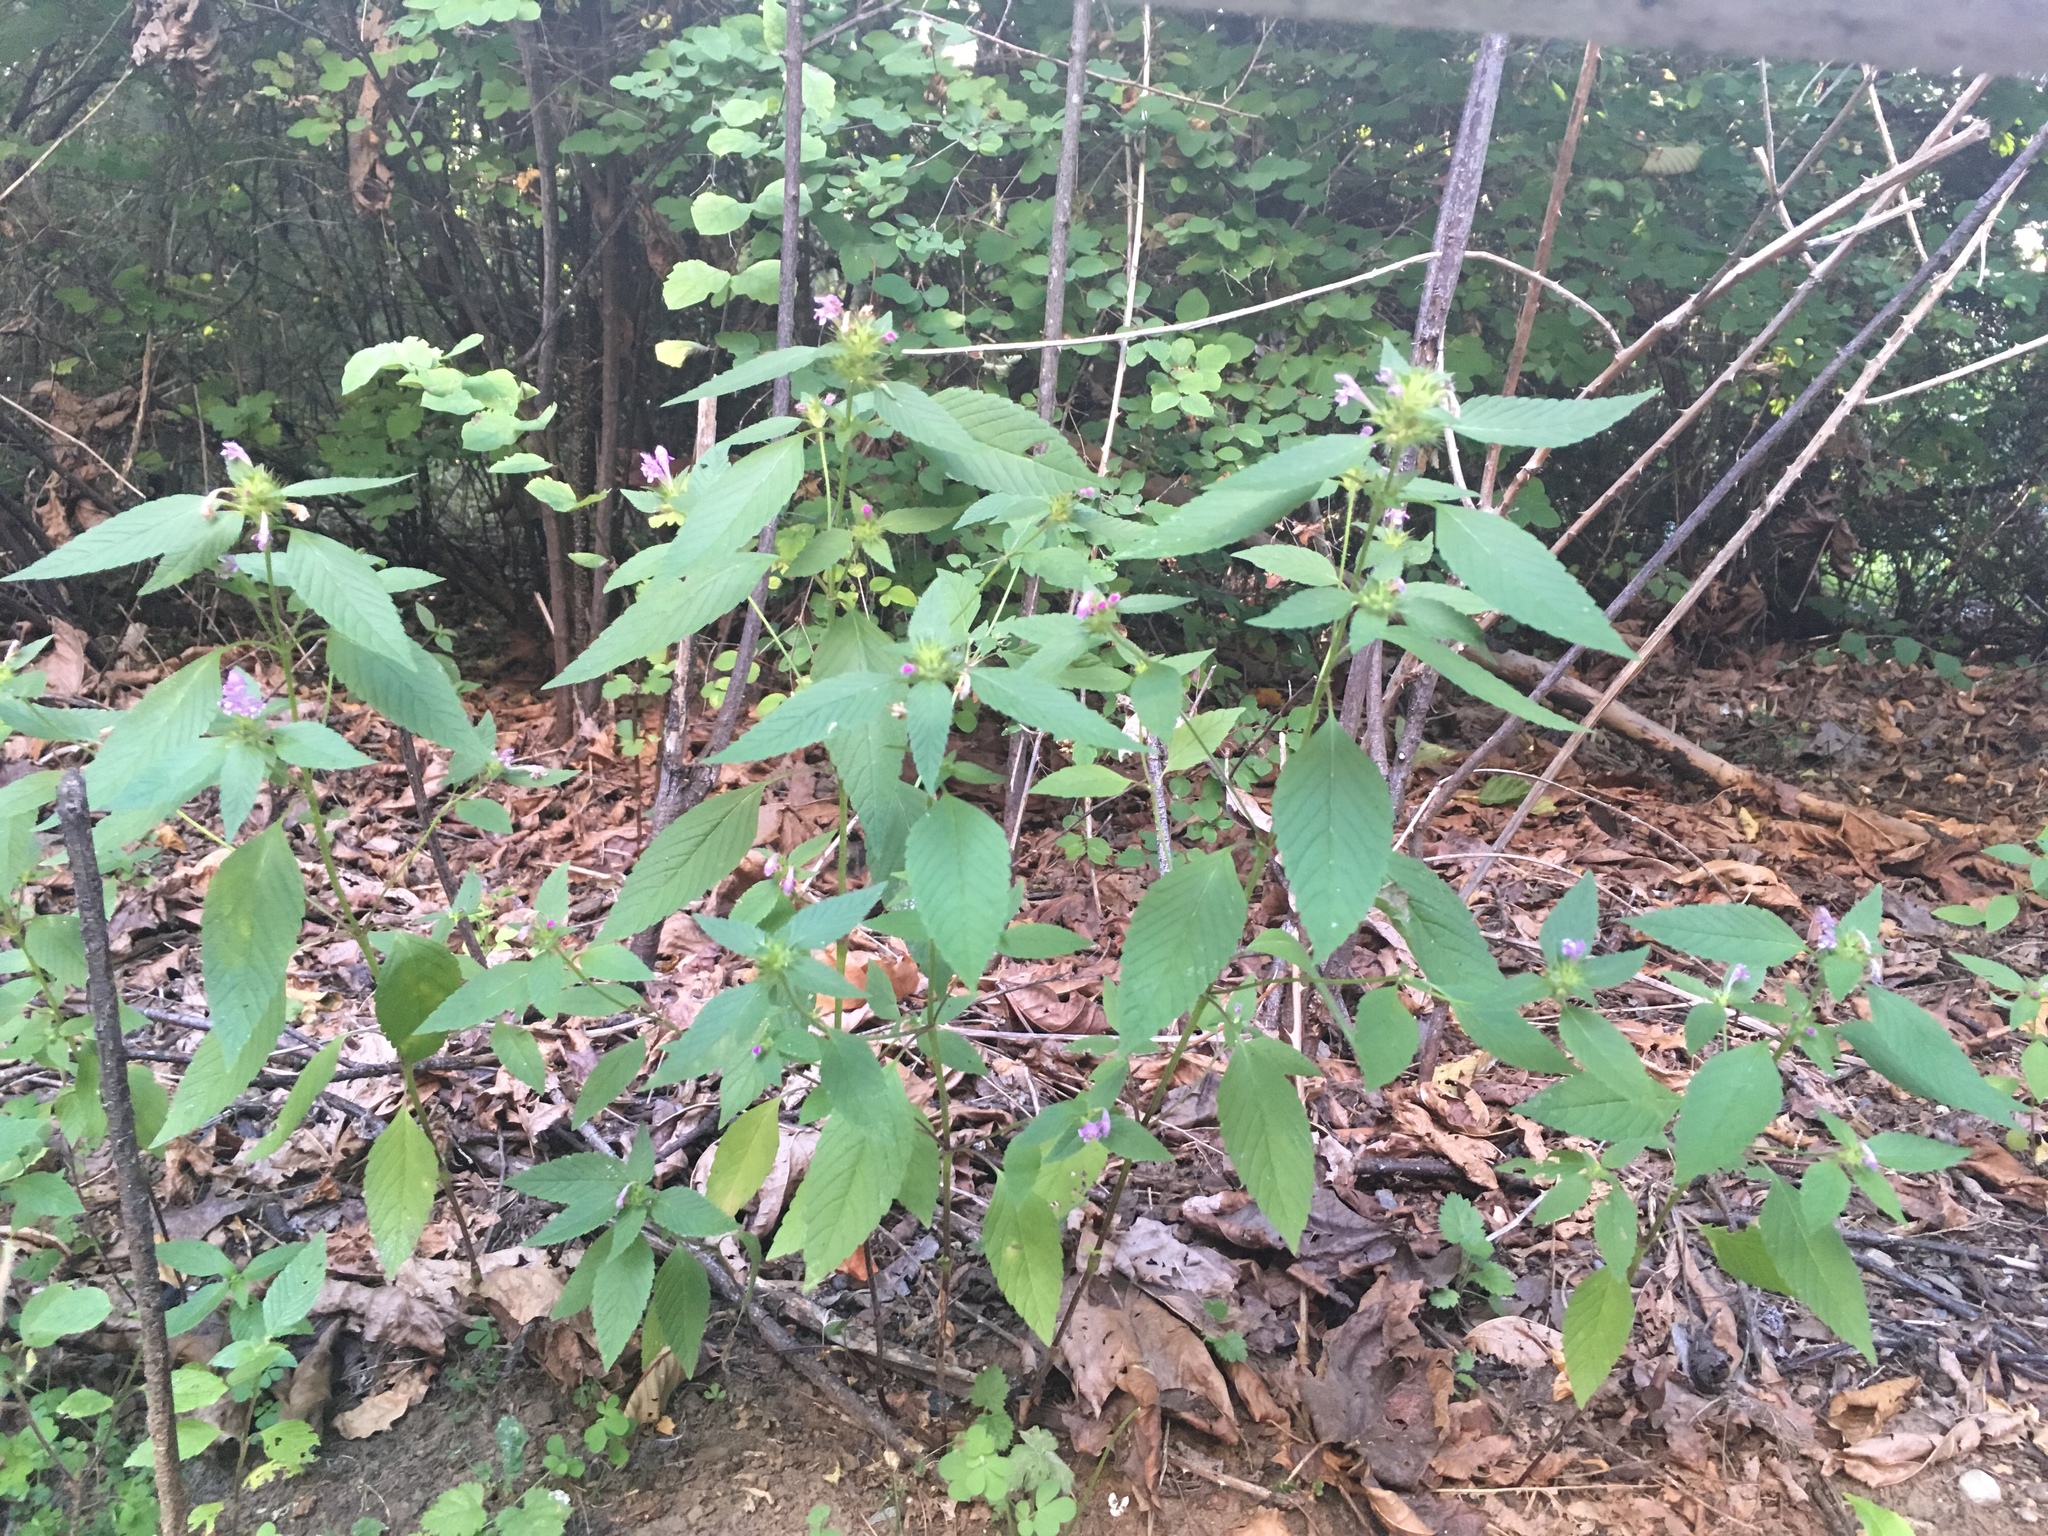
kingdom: Plantae
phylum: Tracheophyta
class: Magnoliopsida
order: Lamiales
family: Lamiaceae
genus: Galeopsis
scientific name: Galeopsis tetrahit
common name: Common hemp-nettle
